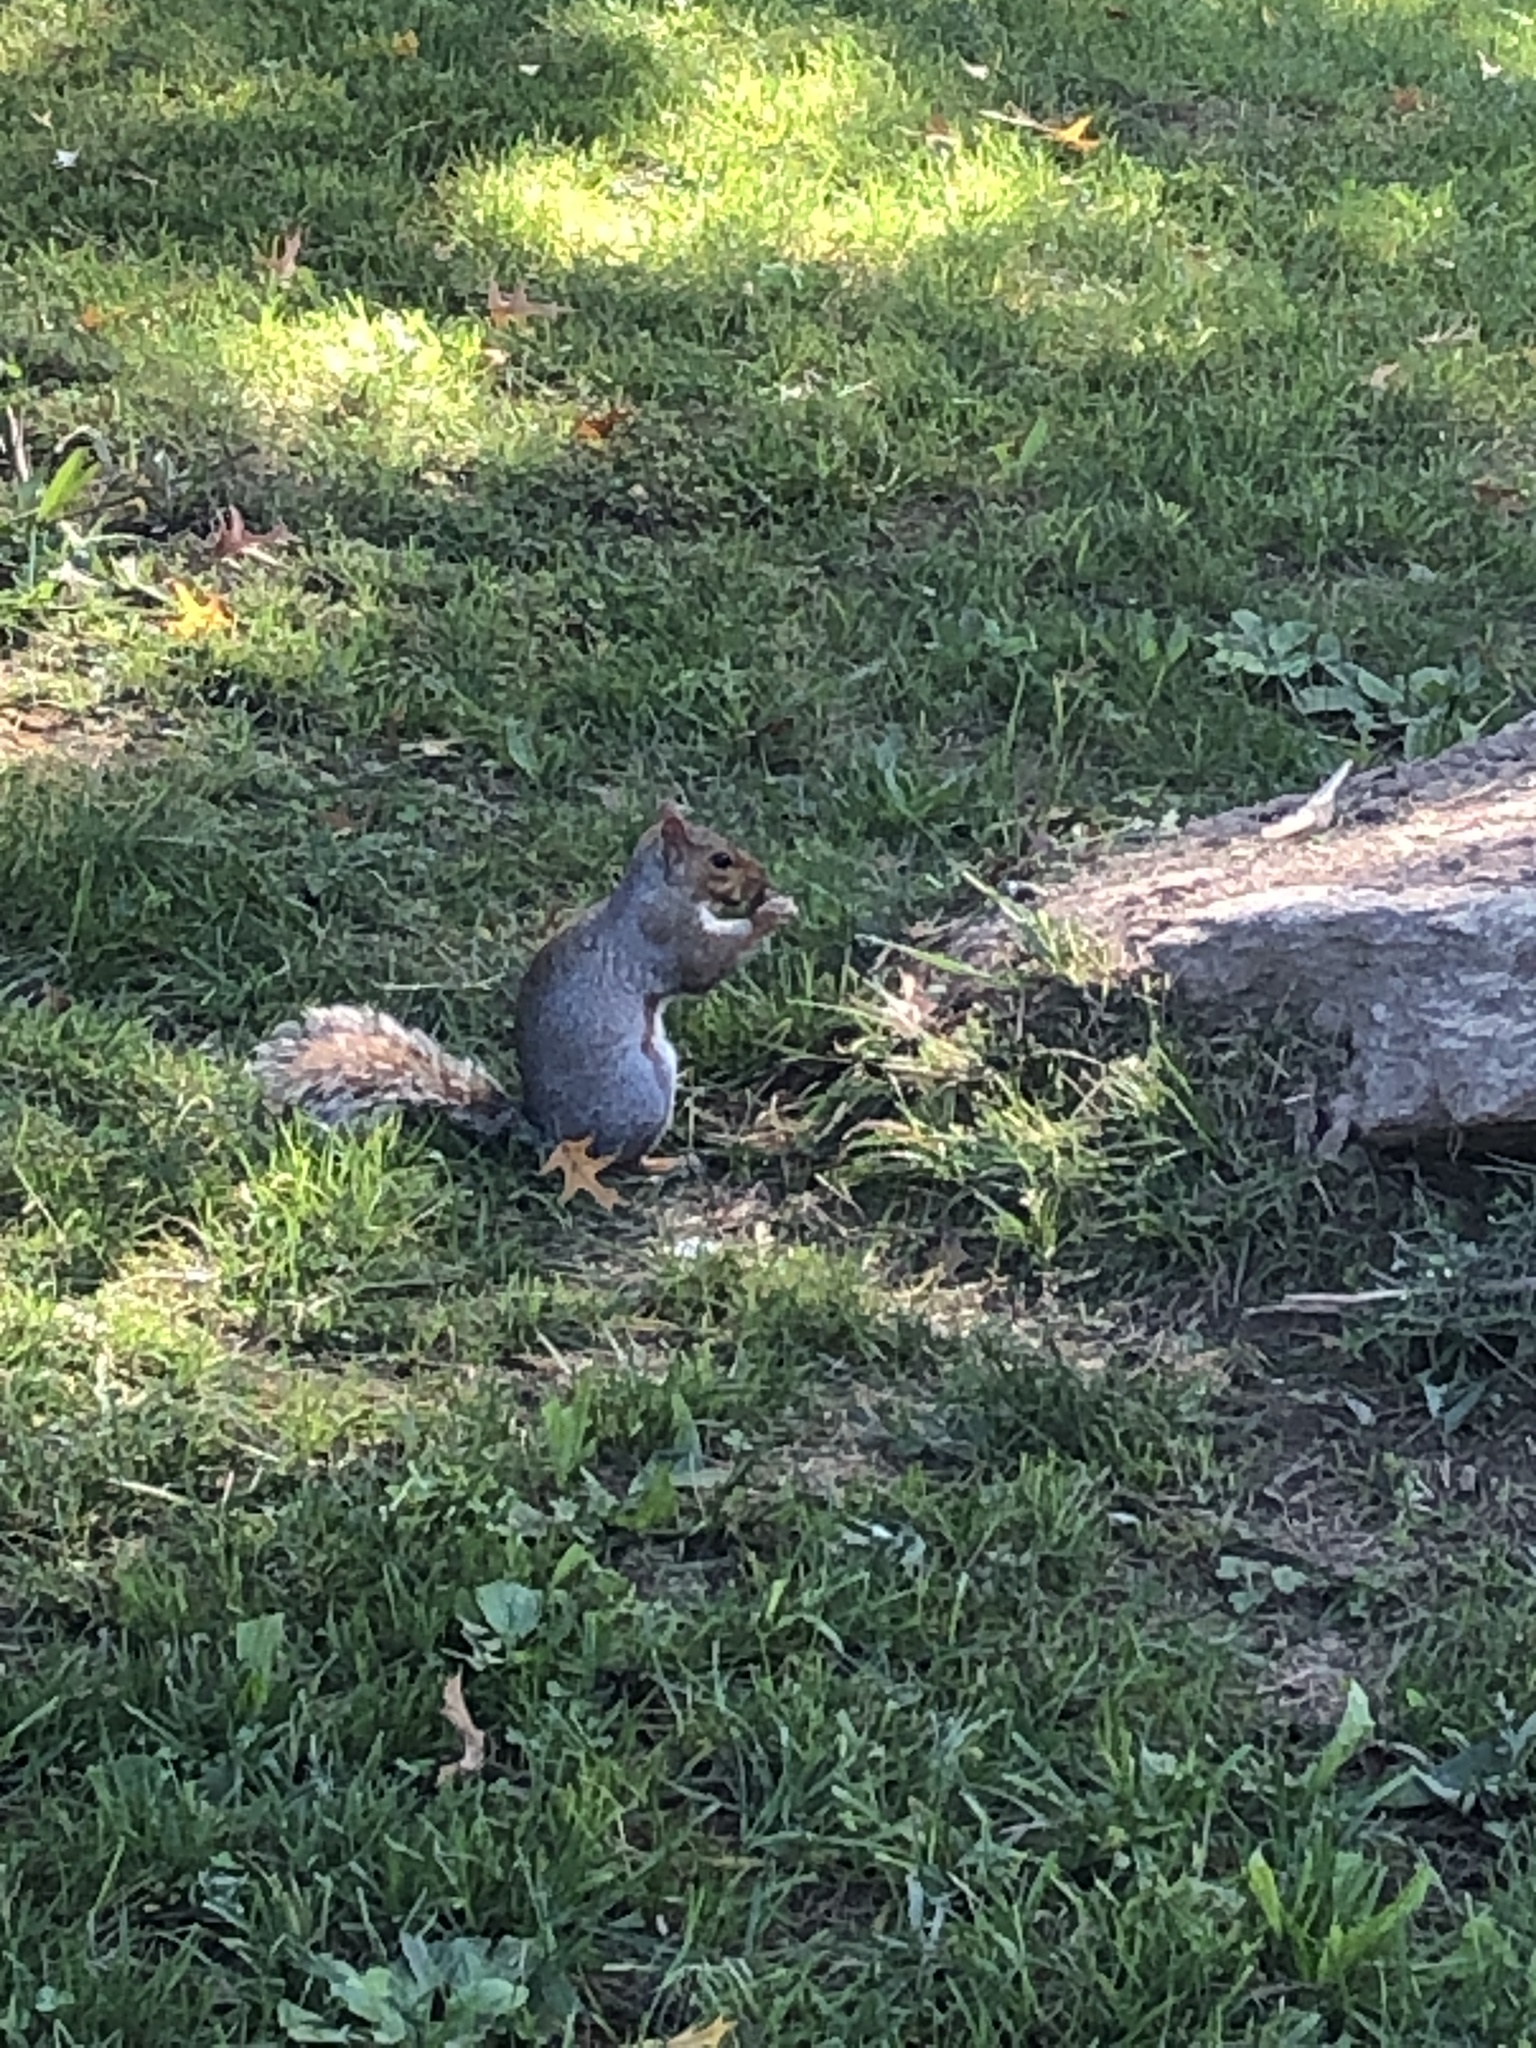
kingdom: Animalia
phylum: Chordata
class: Mammalia
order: Rodentia
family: Sciuridae
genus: Sciurus
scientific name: Sciurus carolinensis
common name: Eastern gray squirrel
